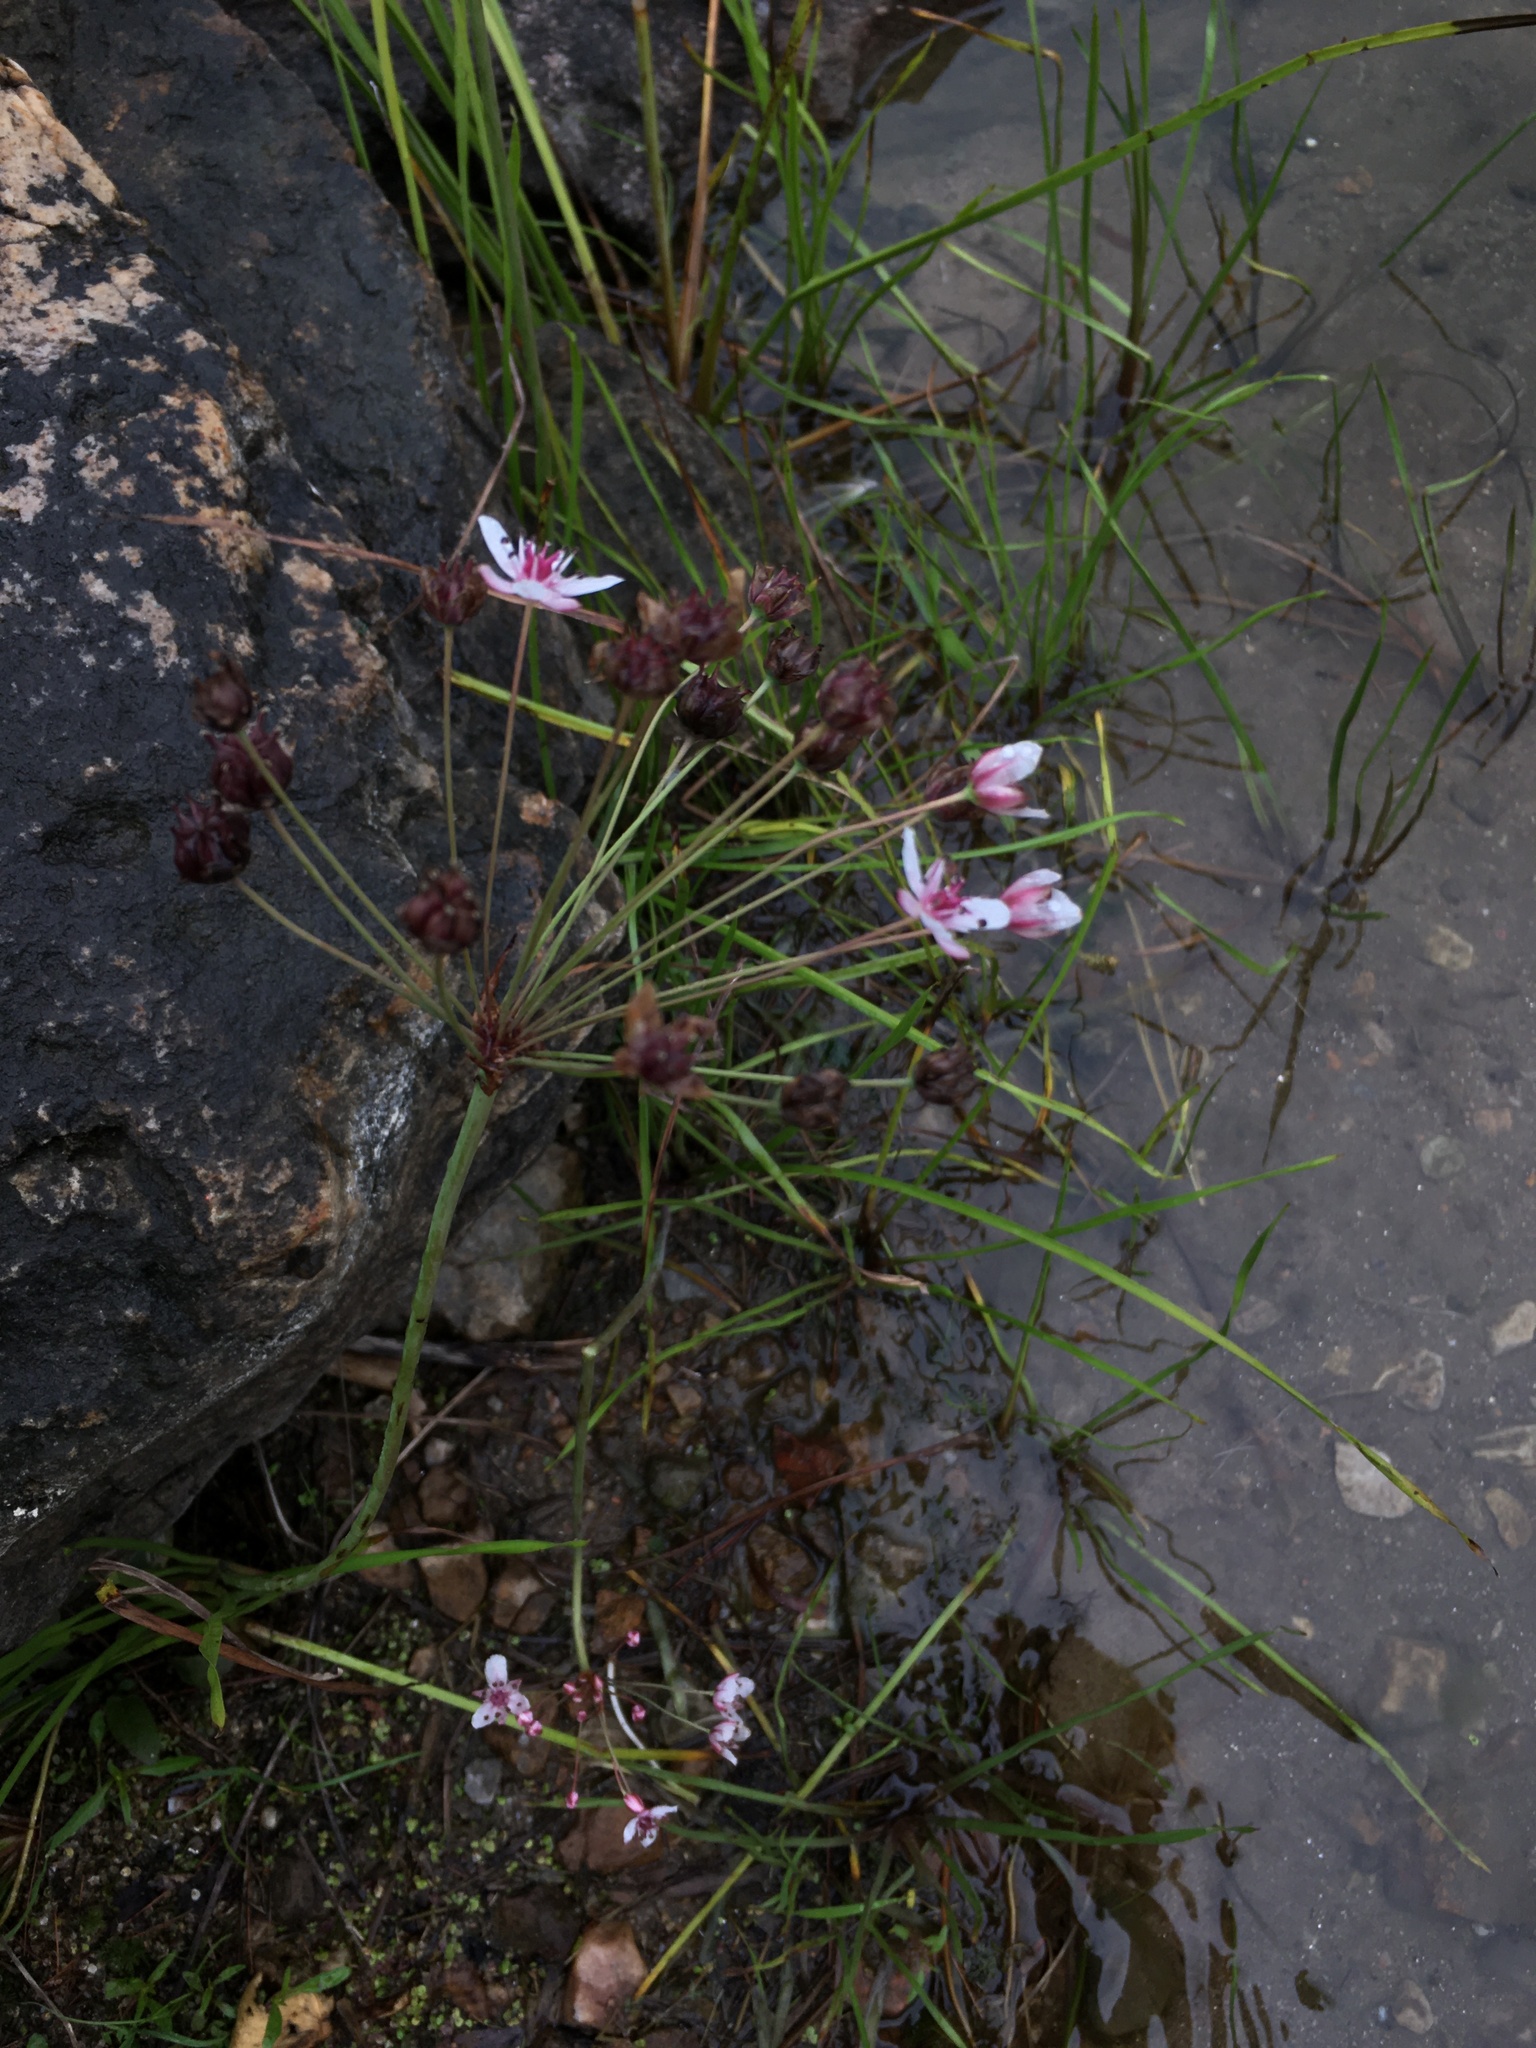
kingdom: Plantae
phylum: Tracheophyta
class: Liliopsida
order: Alismatales
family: Butomaceae
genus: Butomus
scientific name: Butomus umbellatus
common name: Flowering-rush
